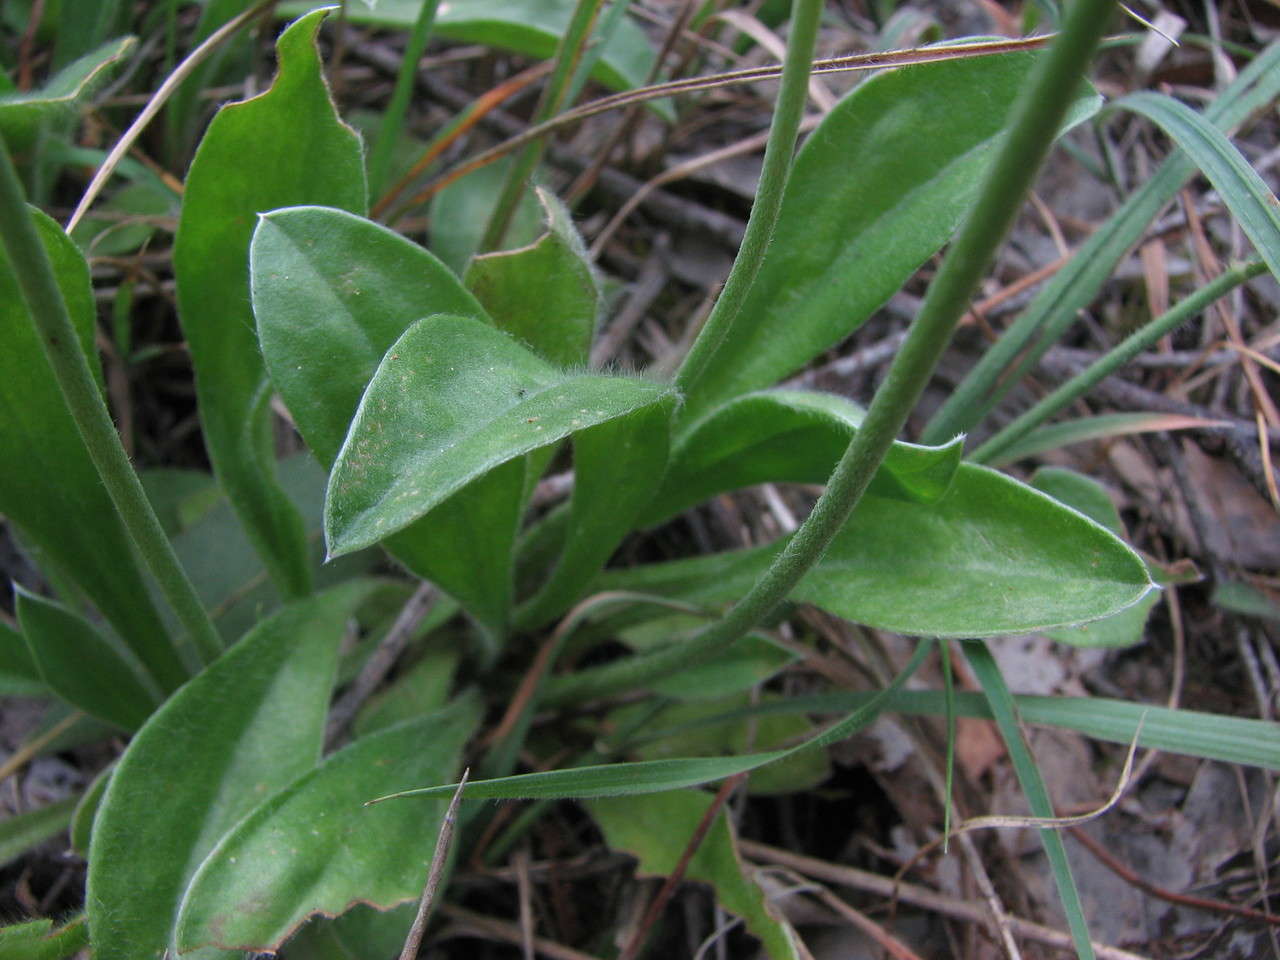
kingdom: Plantae
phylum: Tracheophyta
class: Magnoliopsida
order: Asterales
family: Goodeniaceae
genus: Brunonia
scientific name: Brunonia australis
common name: Blue pincushion
